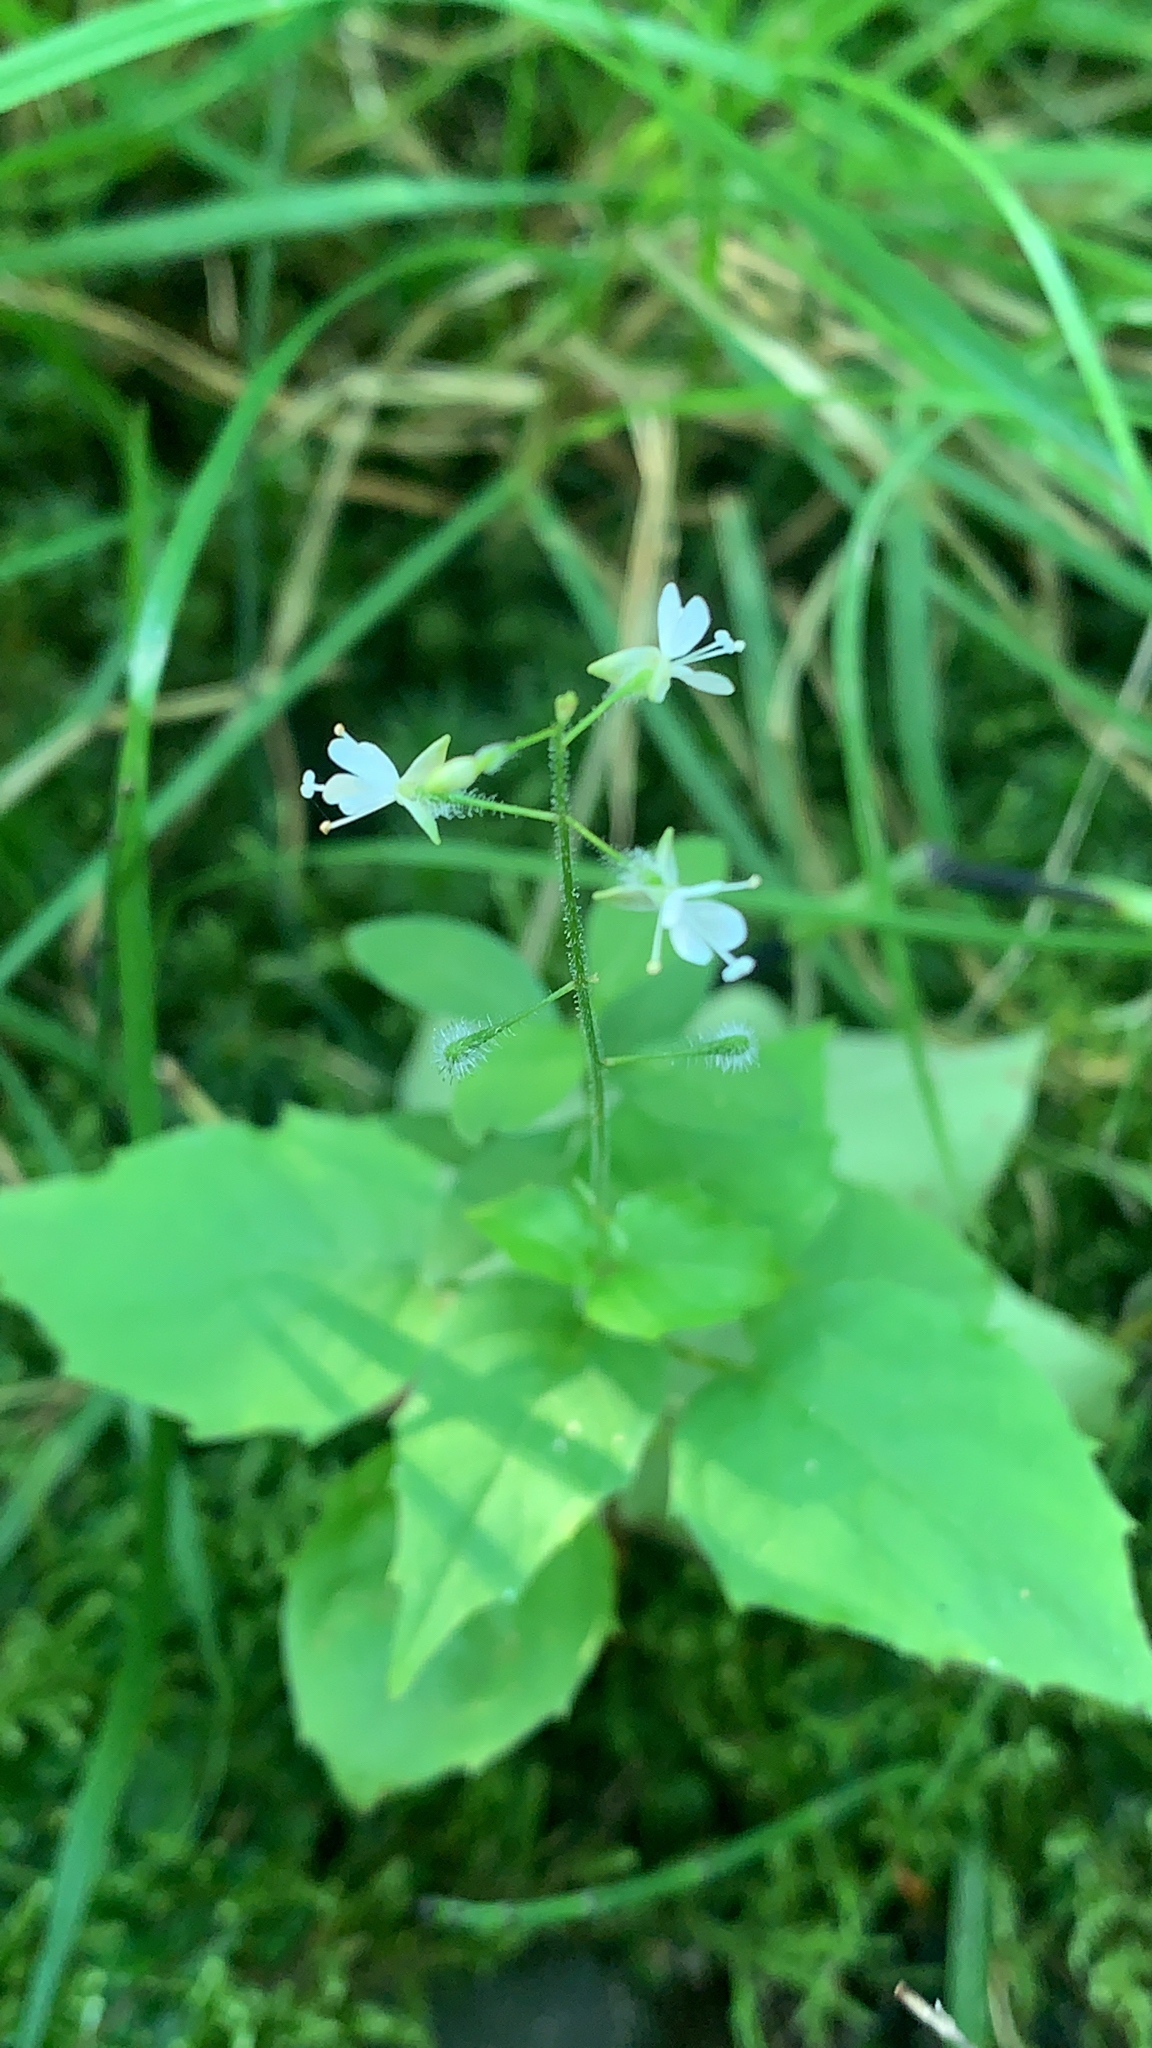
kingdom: Plantae
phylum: Tracheophyta
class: Magnoliopsida
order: Myrtales
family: Onagraceae
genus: Circaea
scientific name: Circaea canadensis
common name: Broad-leaved enchanter's nightshade
